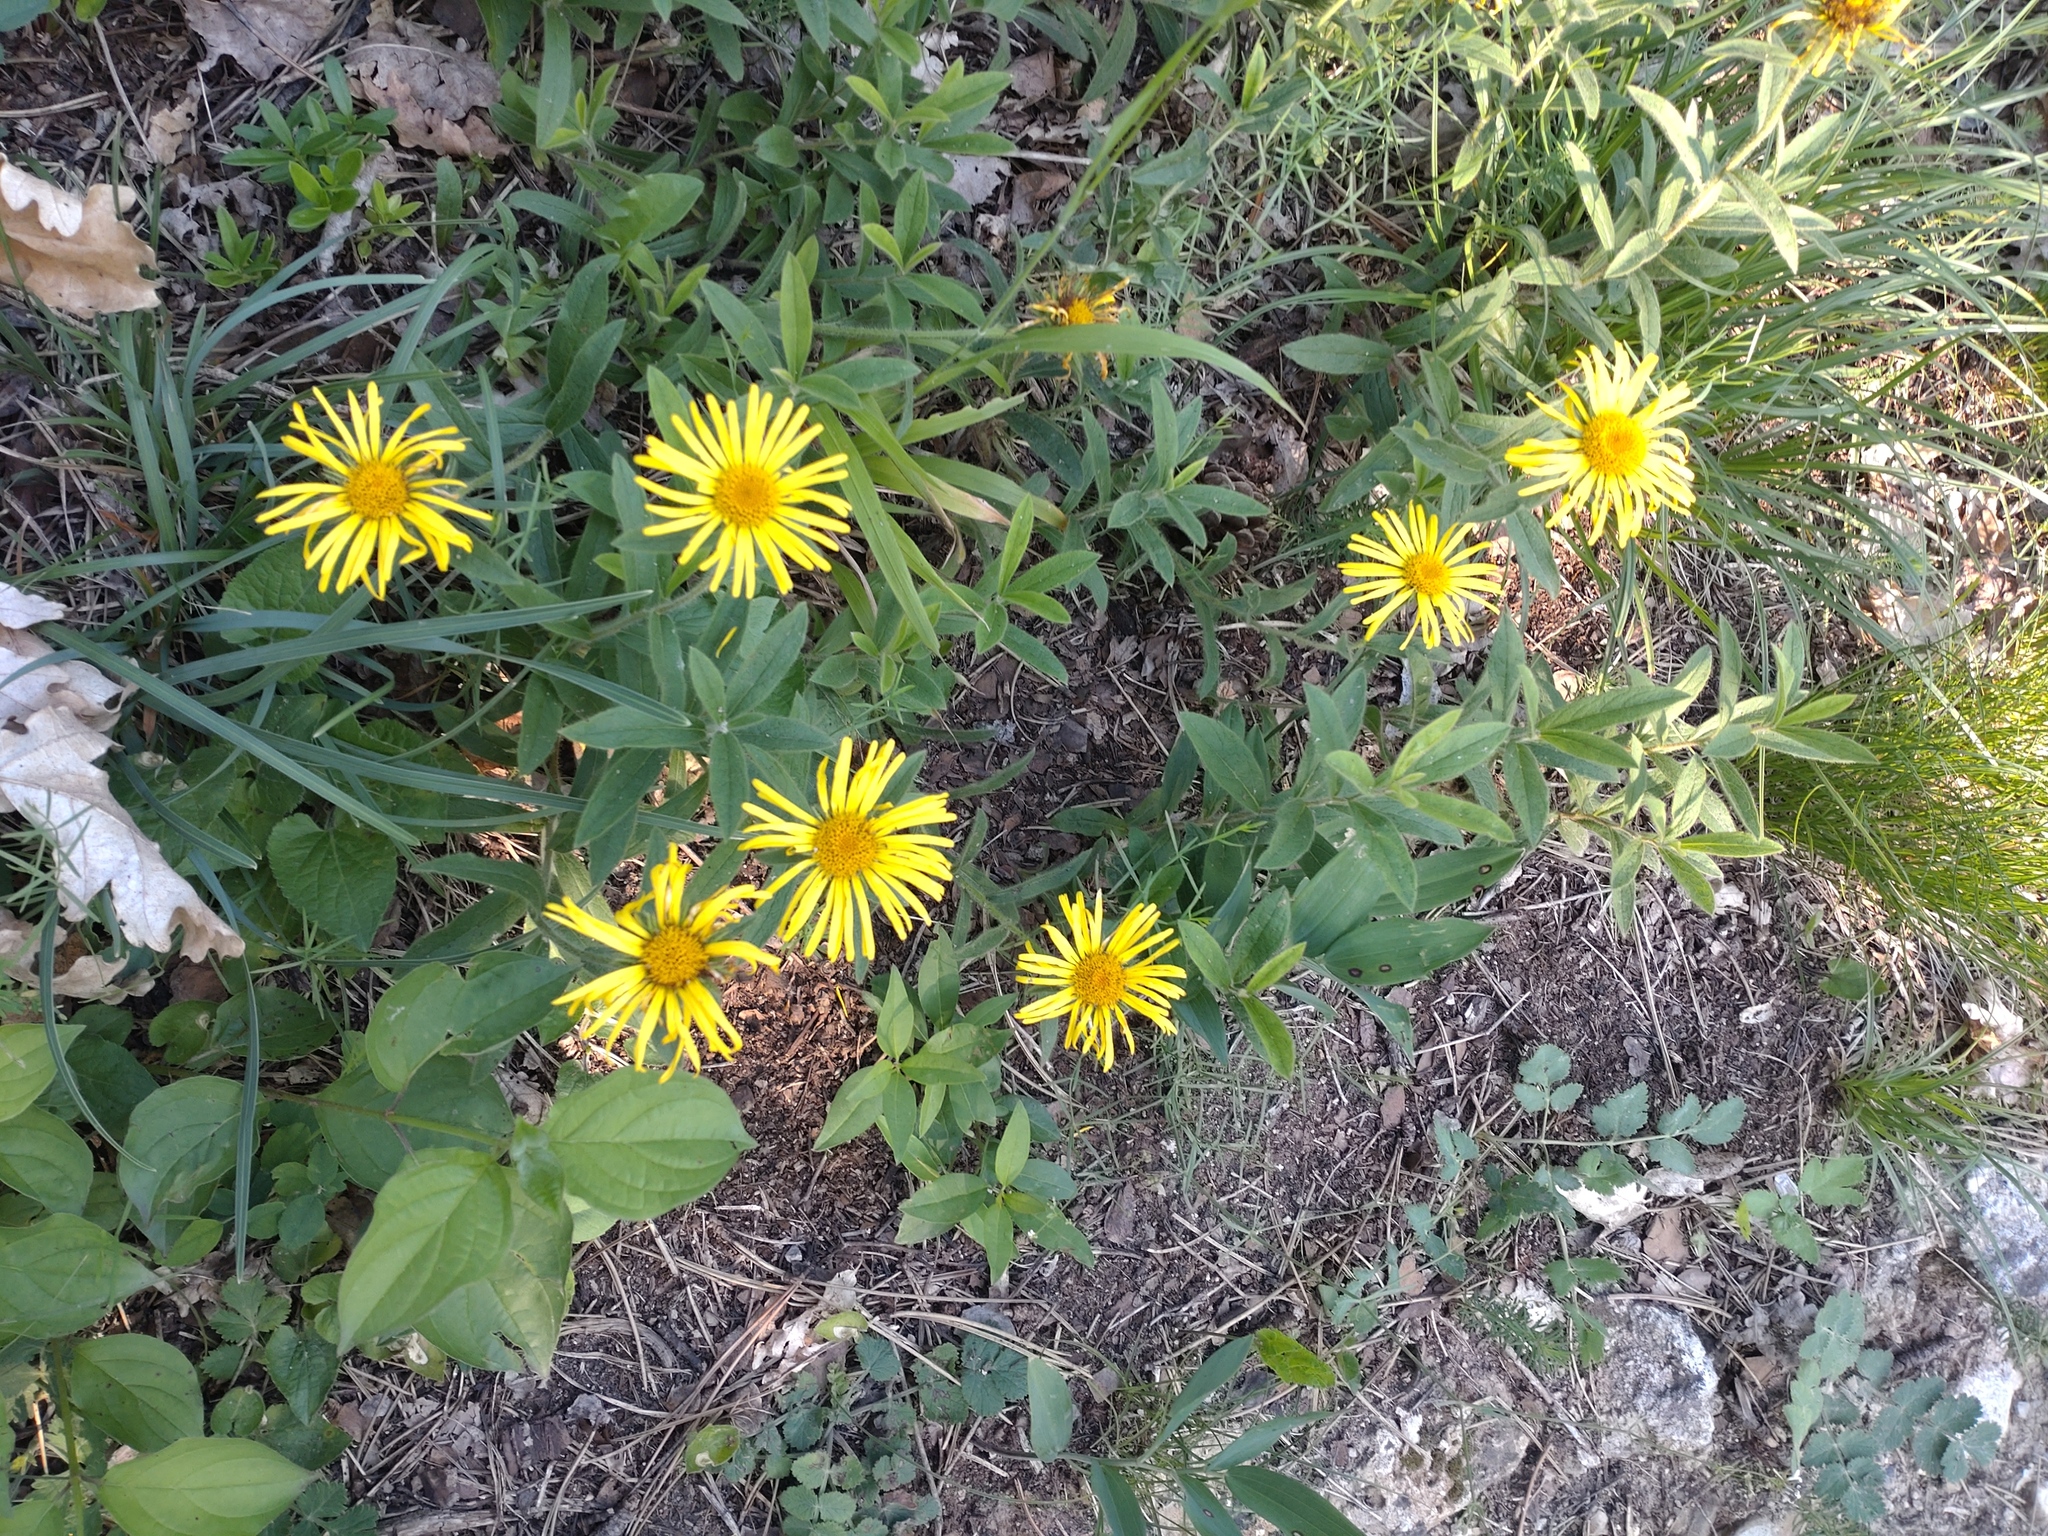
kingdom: Plantae
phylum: Tracheophyta
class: Magnoliopsida
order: Asterales
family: Asteraceae
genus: Pentanema
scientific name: Pentanema hirtum
